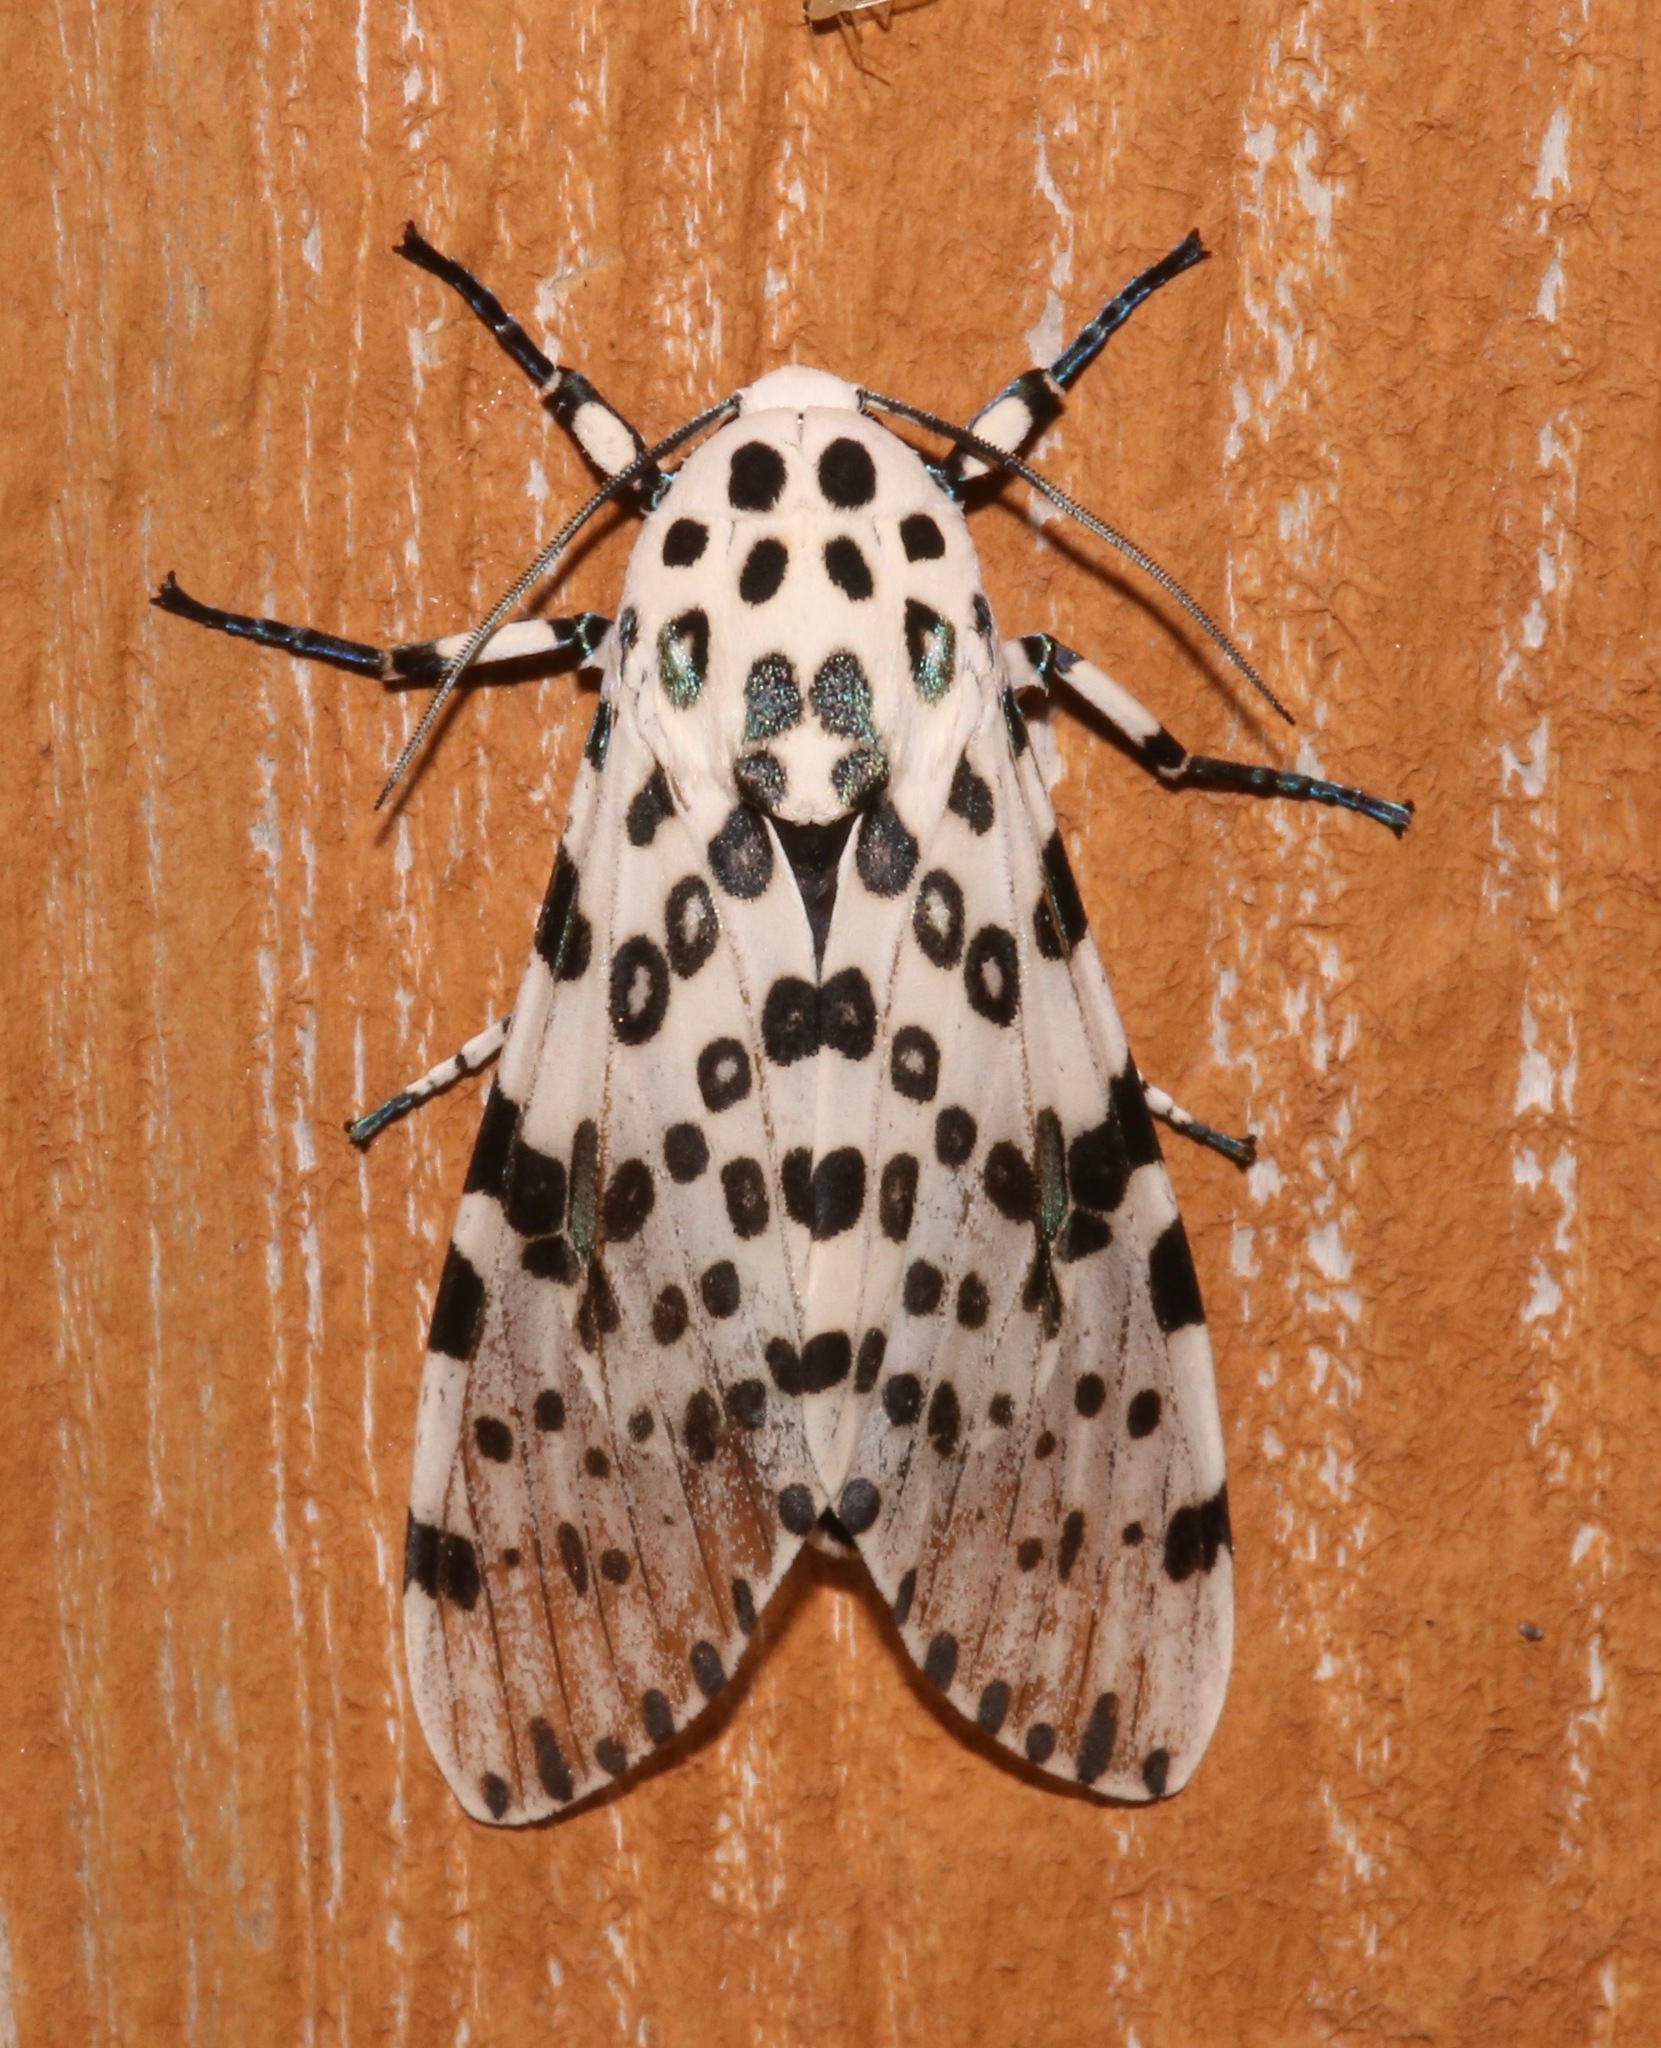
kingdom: Animalia
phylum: Arthropoda
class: Insecta
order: Lepidoptera
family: Erebidae
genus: Hypercompe
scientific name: Hypercompe scribonia
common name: Giant leopard moth
